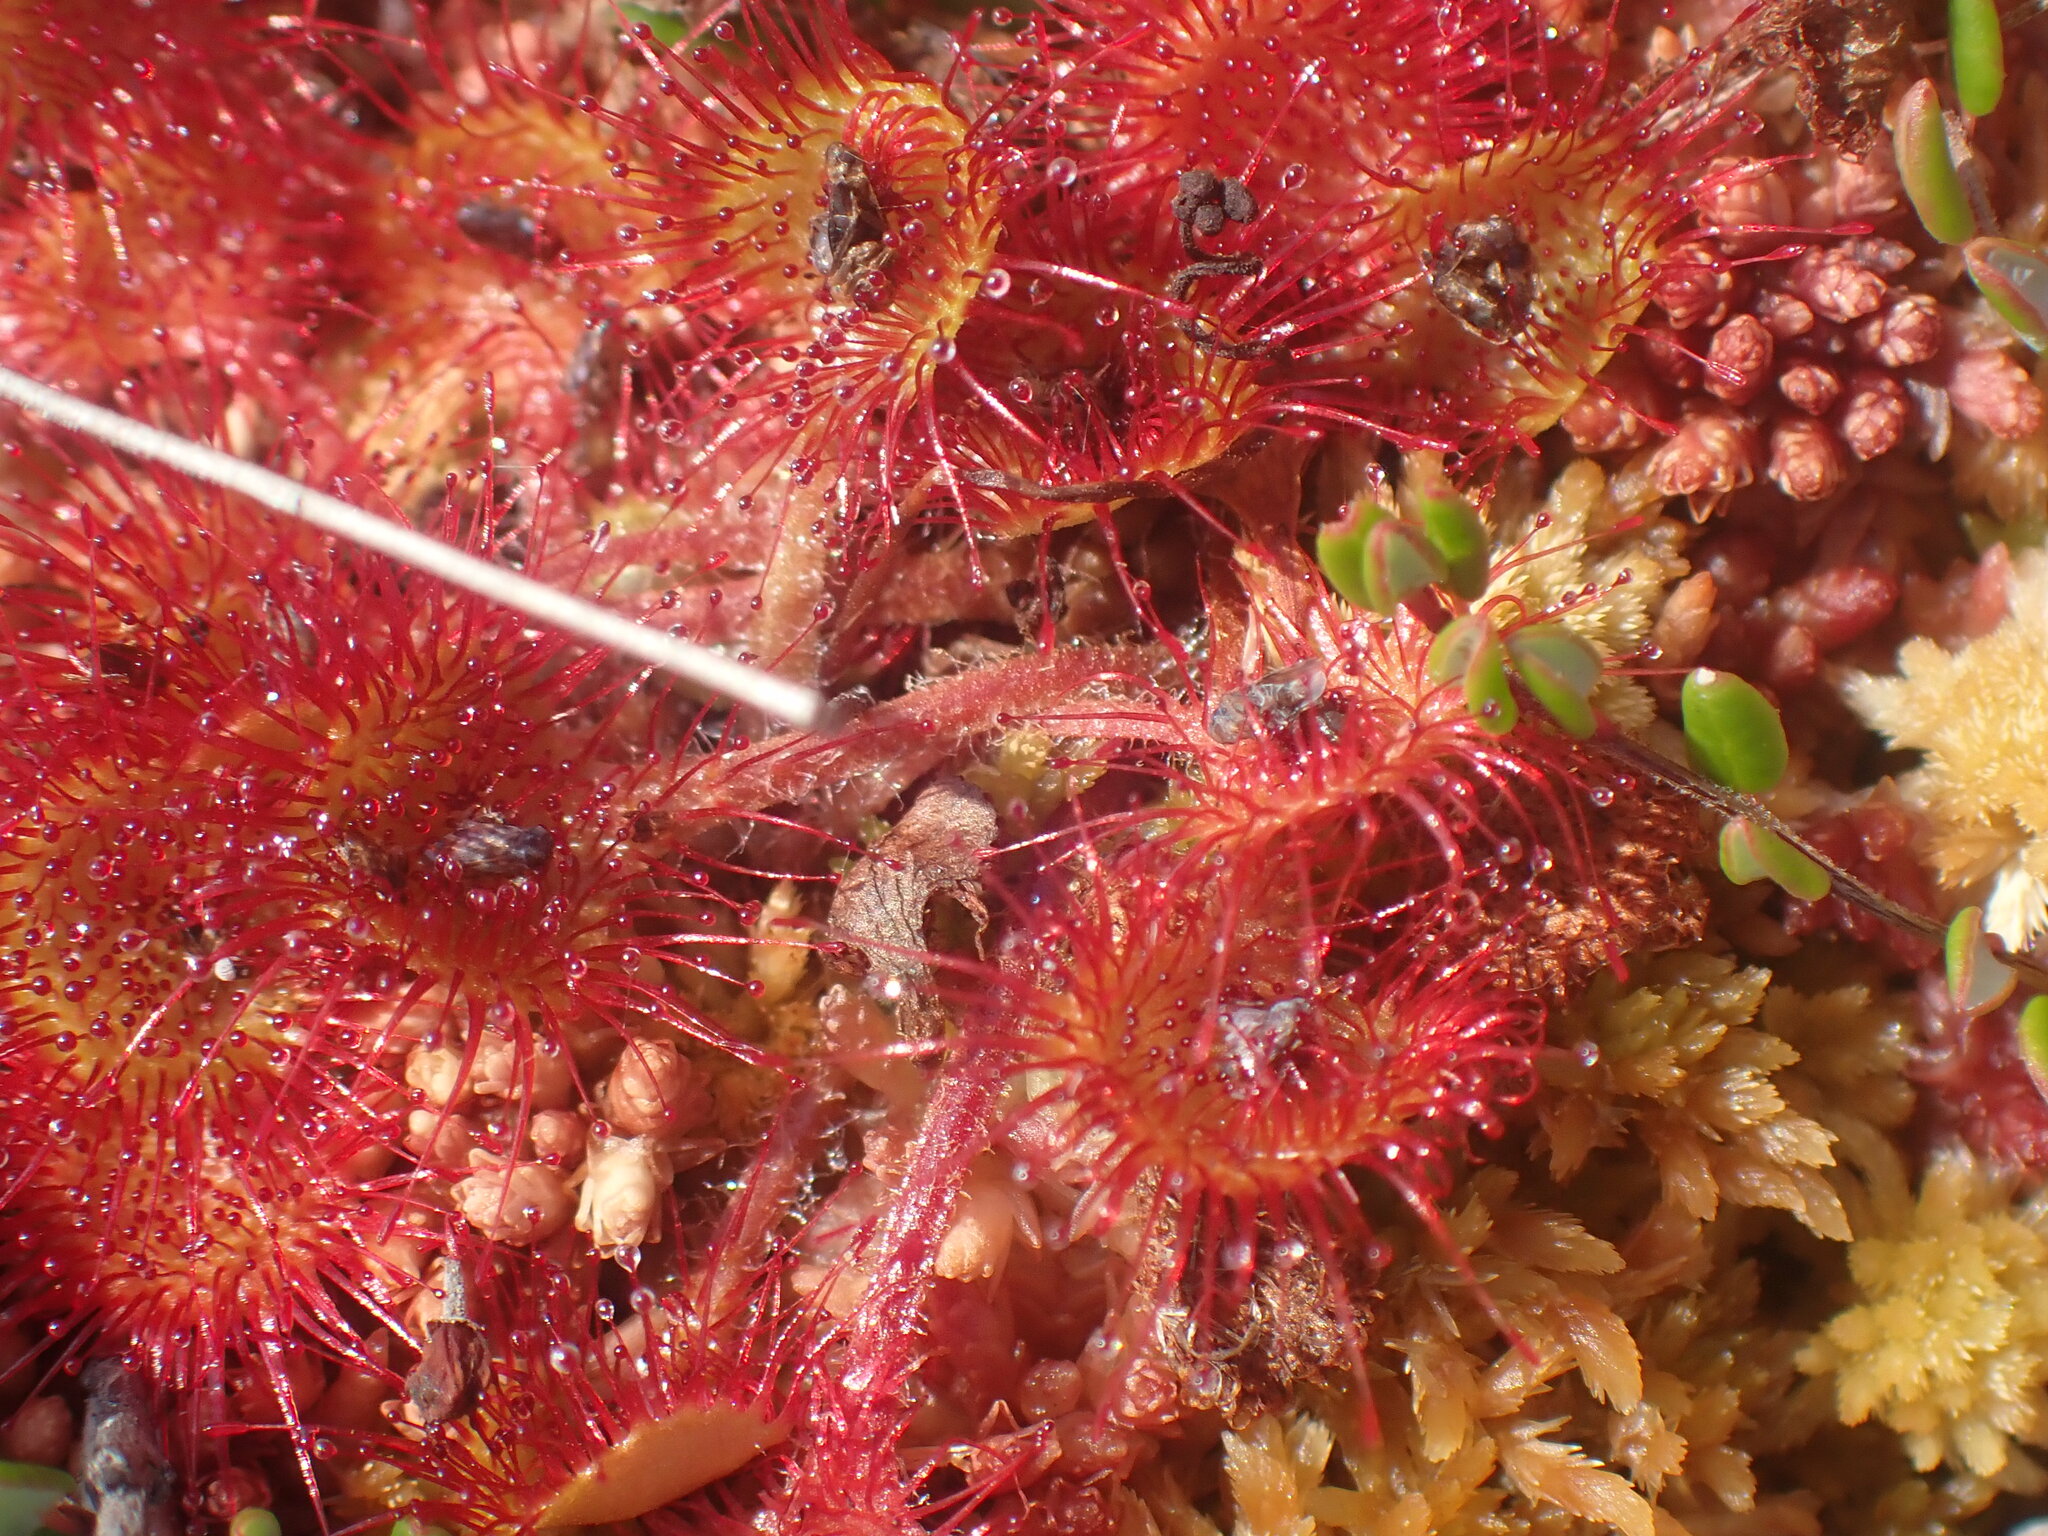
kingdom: Plantae
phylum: Tracheophyta
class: Magnoliopsida
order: Caryophyllales
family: Droseraceae
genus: Drosera
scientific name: Drosera rotundifolia
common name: Round-leaved sundew
